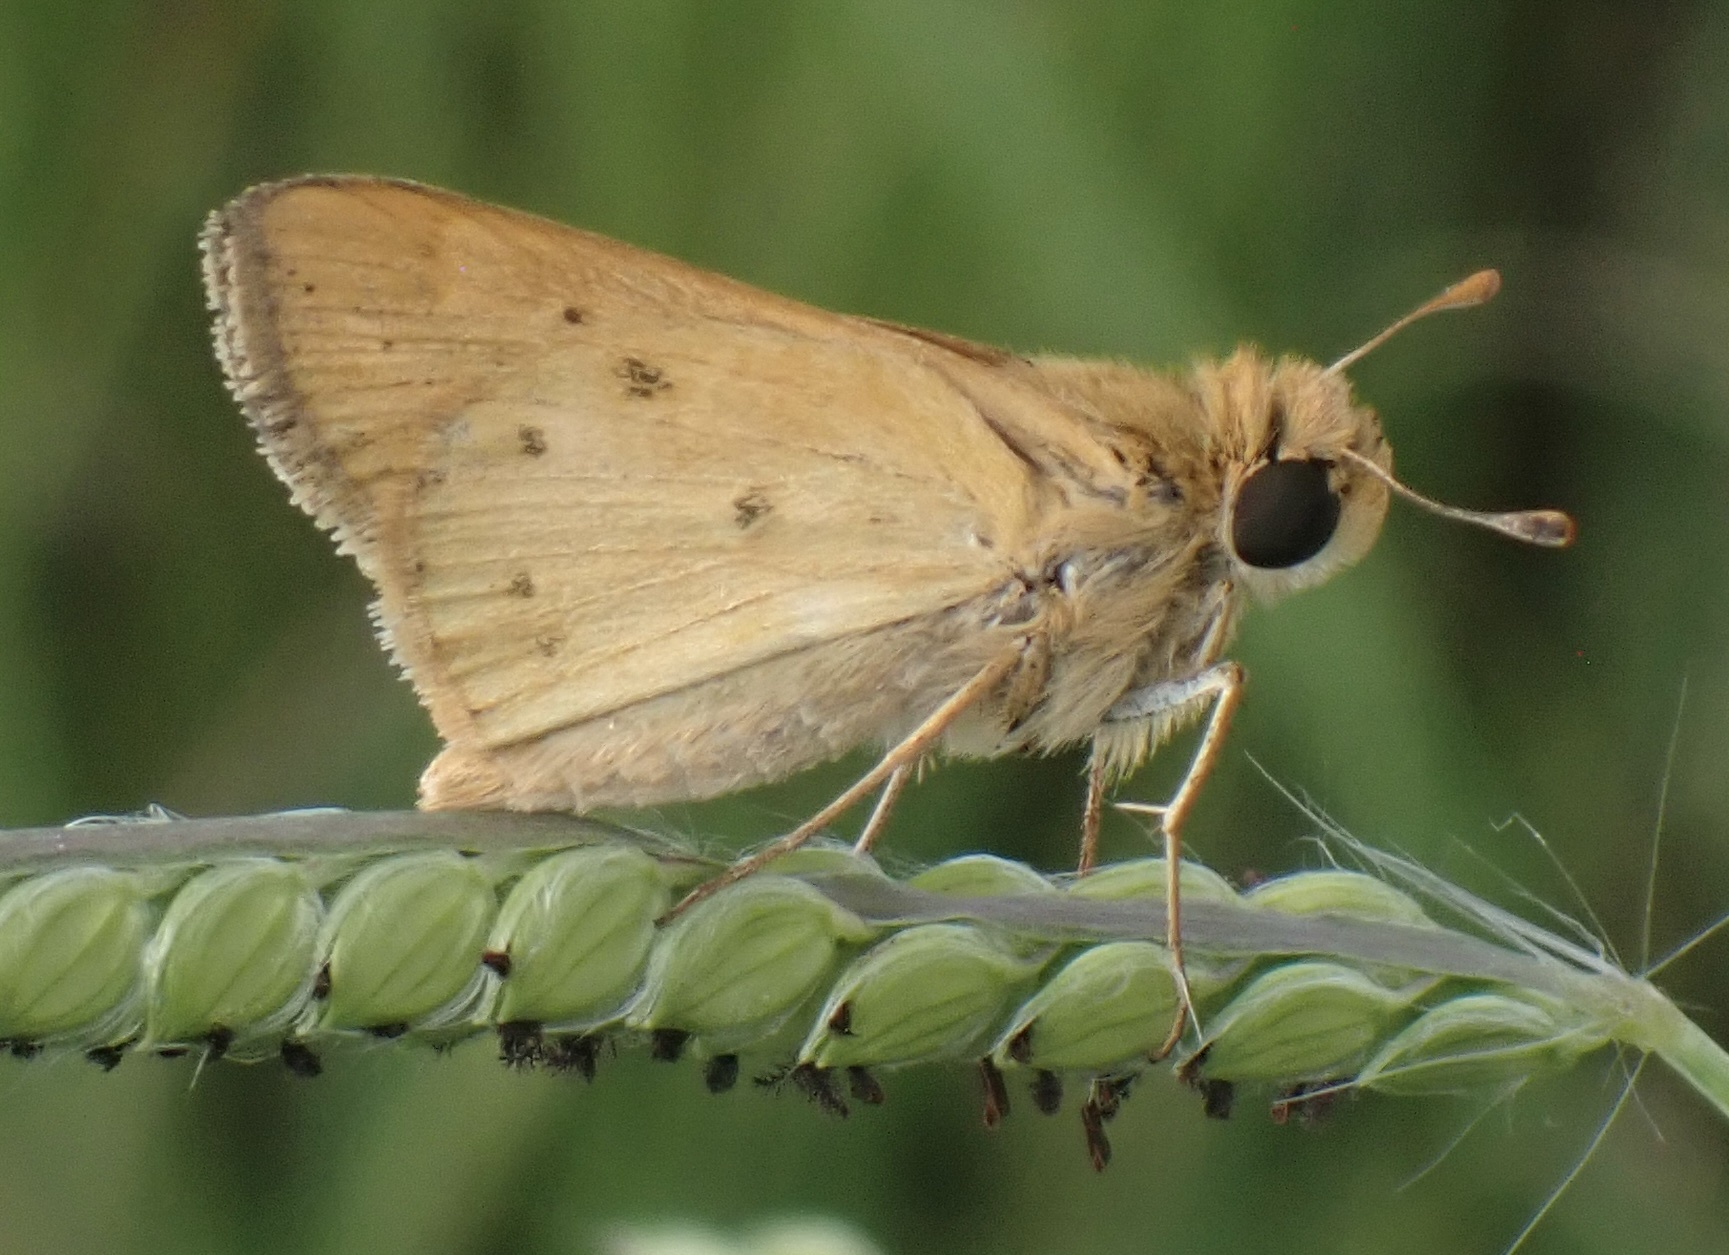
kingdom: Animalia
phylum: Arthropoda
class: Insecta
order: Lepidoptera
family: Hesperiidae
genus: Hylephila
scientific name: Hylephila phyleus
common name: Fiery skipper
